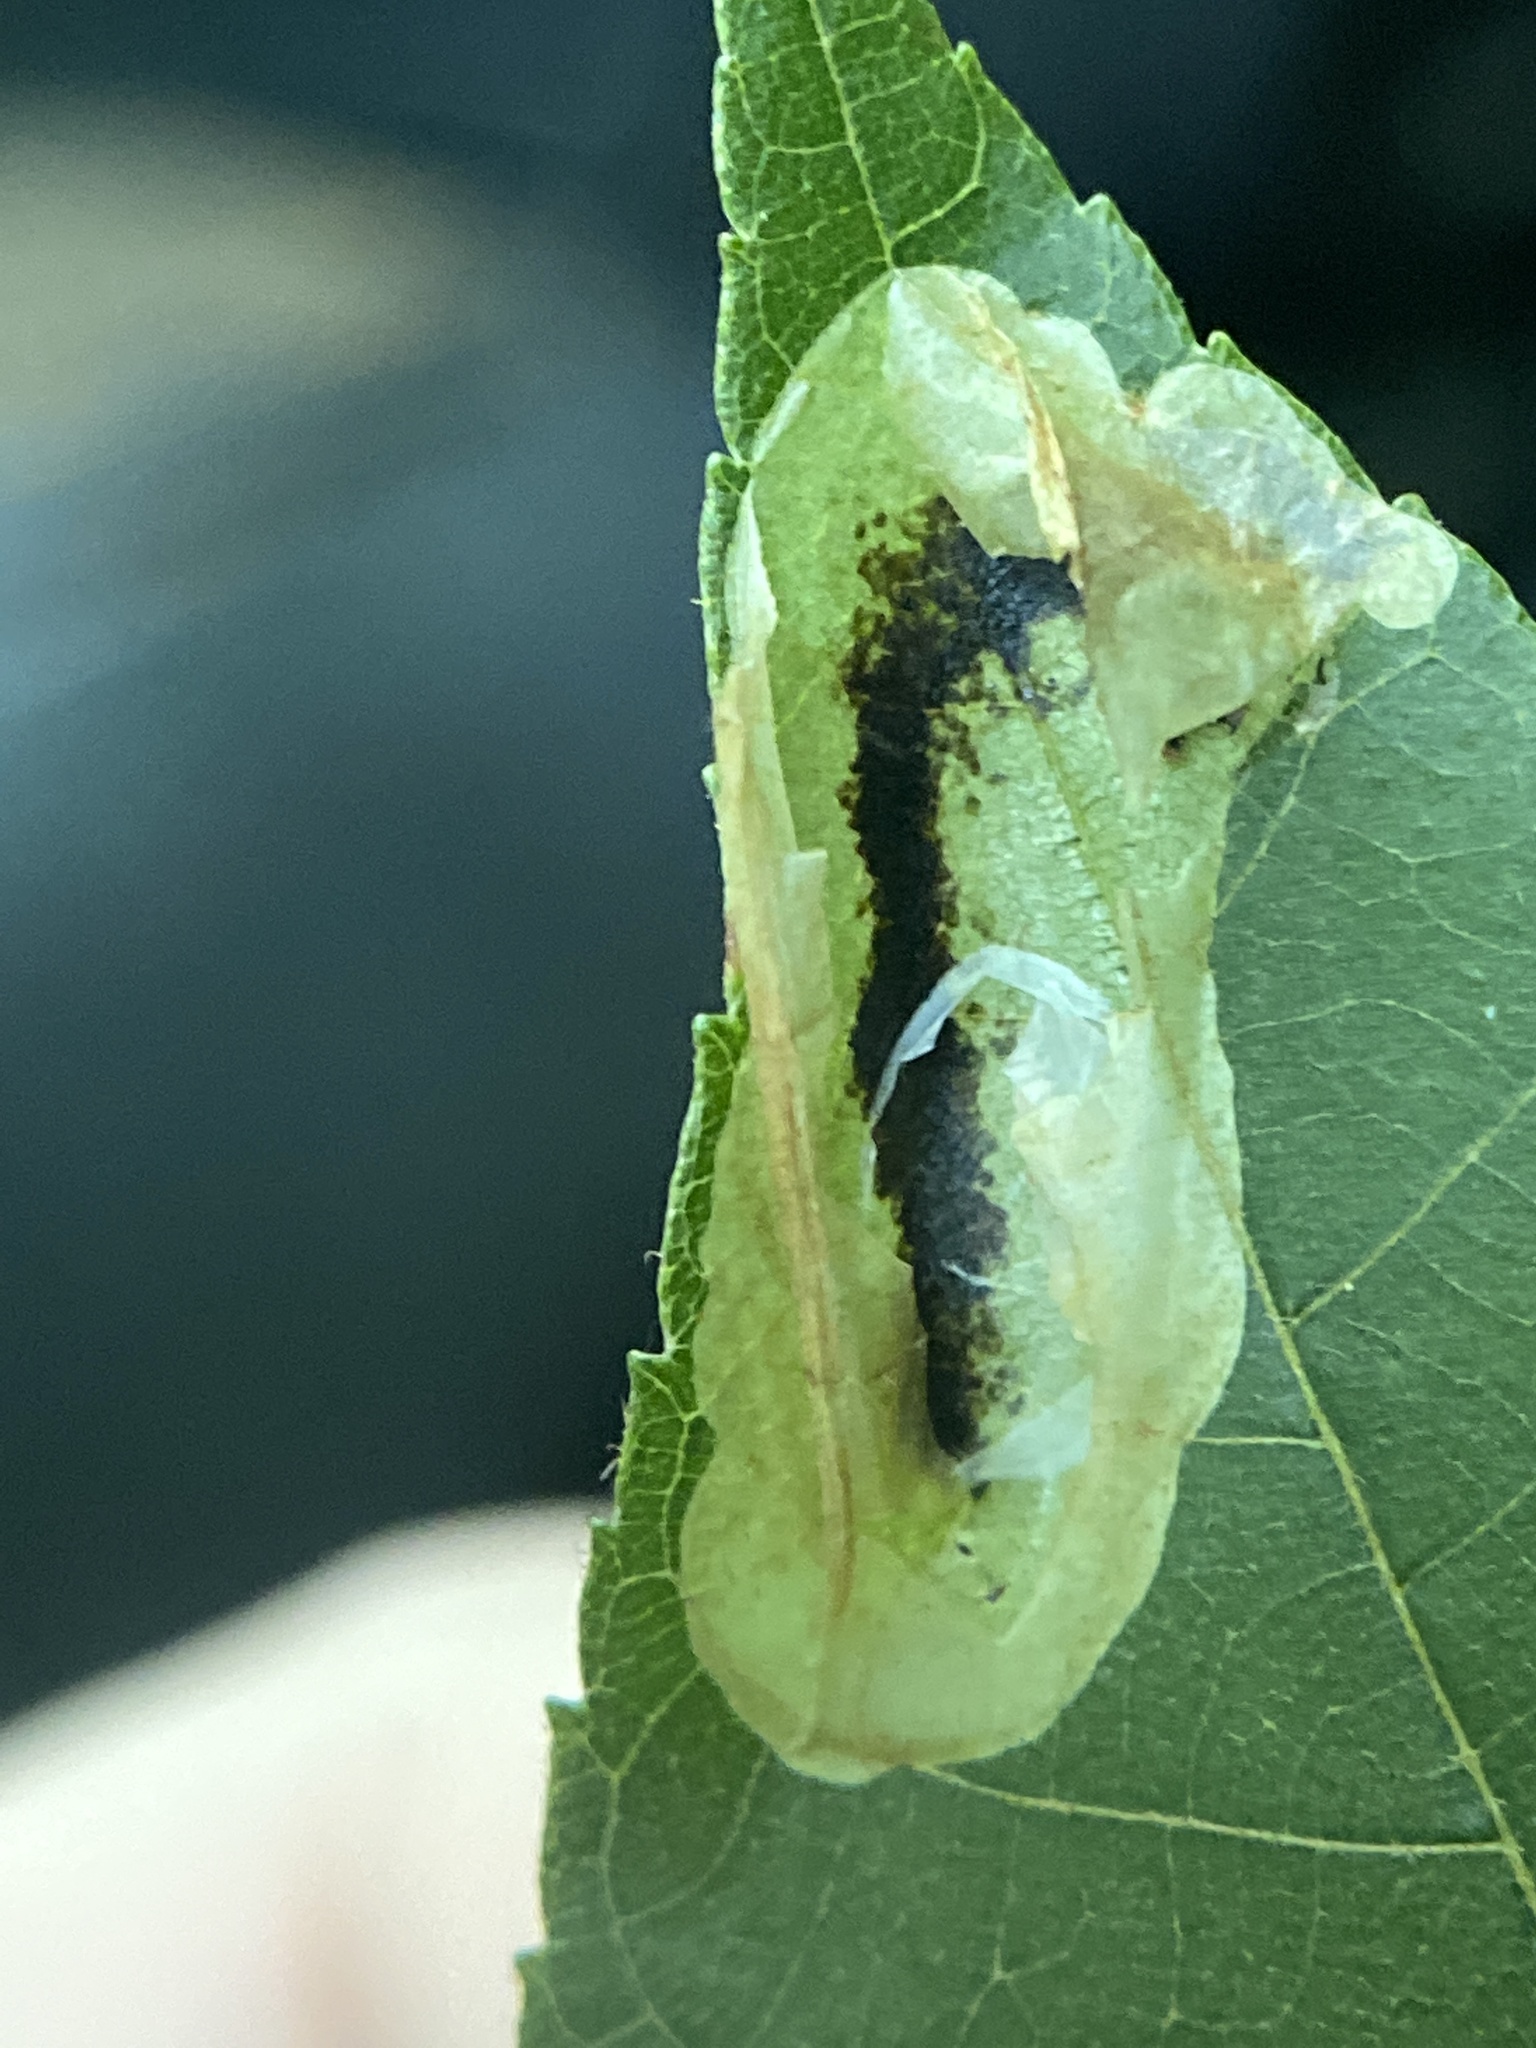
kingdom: Animalia
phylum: Arthropoda
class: Insecta
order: Lepidoptera
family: Gracillariidae
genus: Cameraria
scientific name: Cameraria caryaefoliella
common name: Pecan leafminer moth
